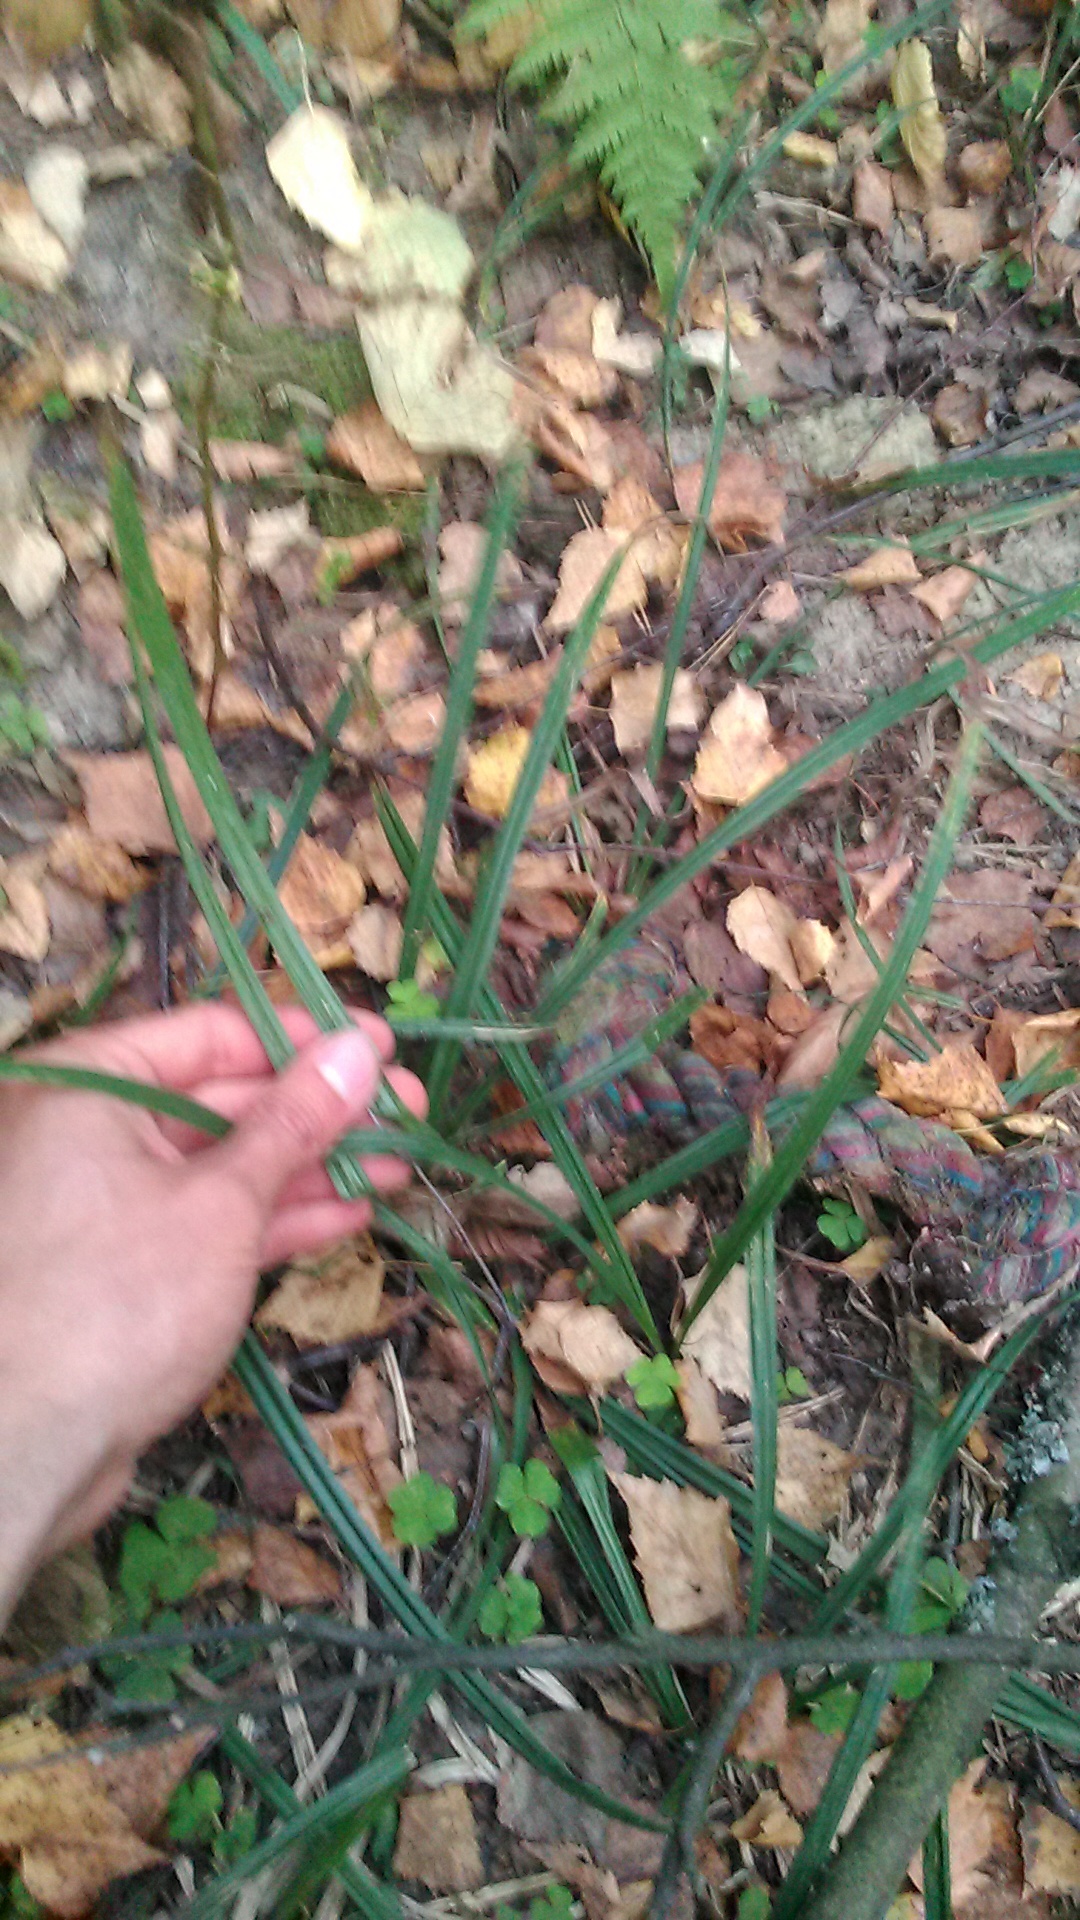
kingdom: Plantae
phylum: Tracheophyta
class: Liliopsida
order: Poales
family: Cyperaceae
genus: Carex
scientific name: Carex pilosa
